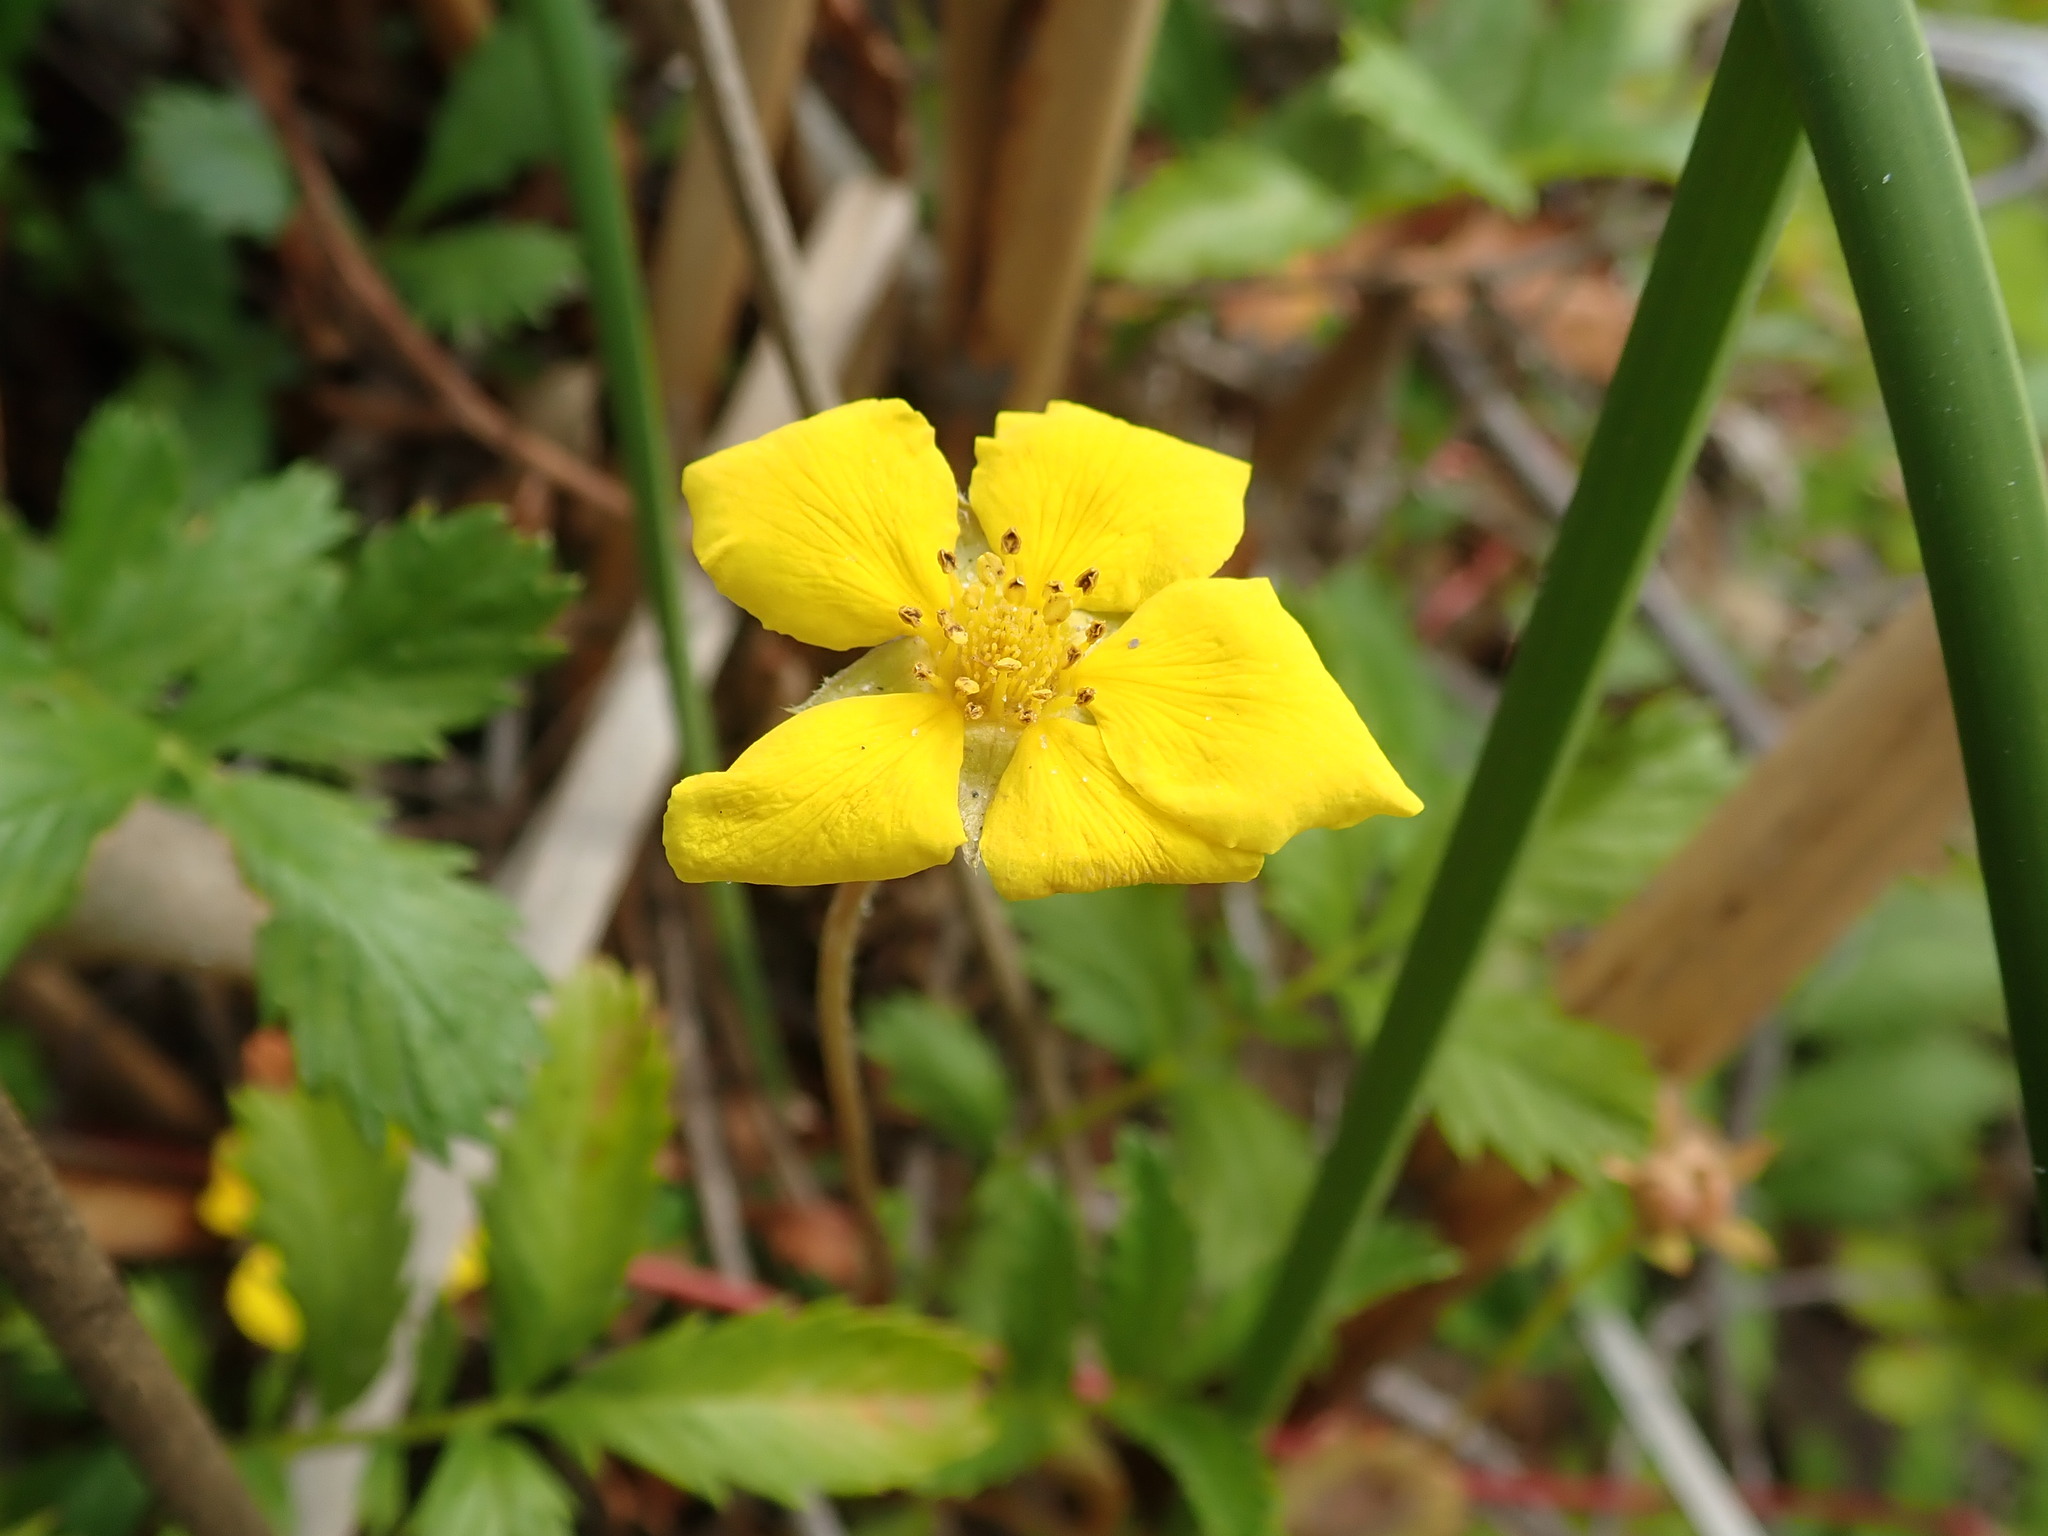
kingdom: Plantae
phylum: Tracheophyta
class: Magnoliopsida
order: Rosales
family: Rosaceae
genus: Argentina
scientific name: Argentina anserina
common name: Common silverweed
